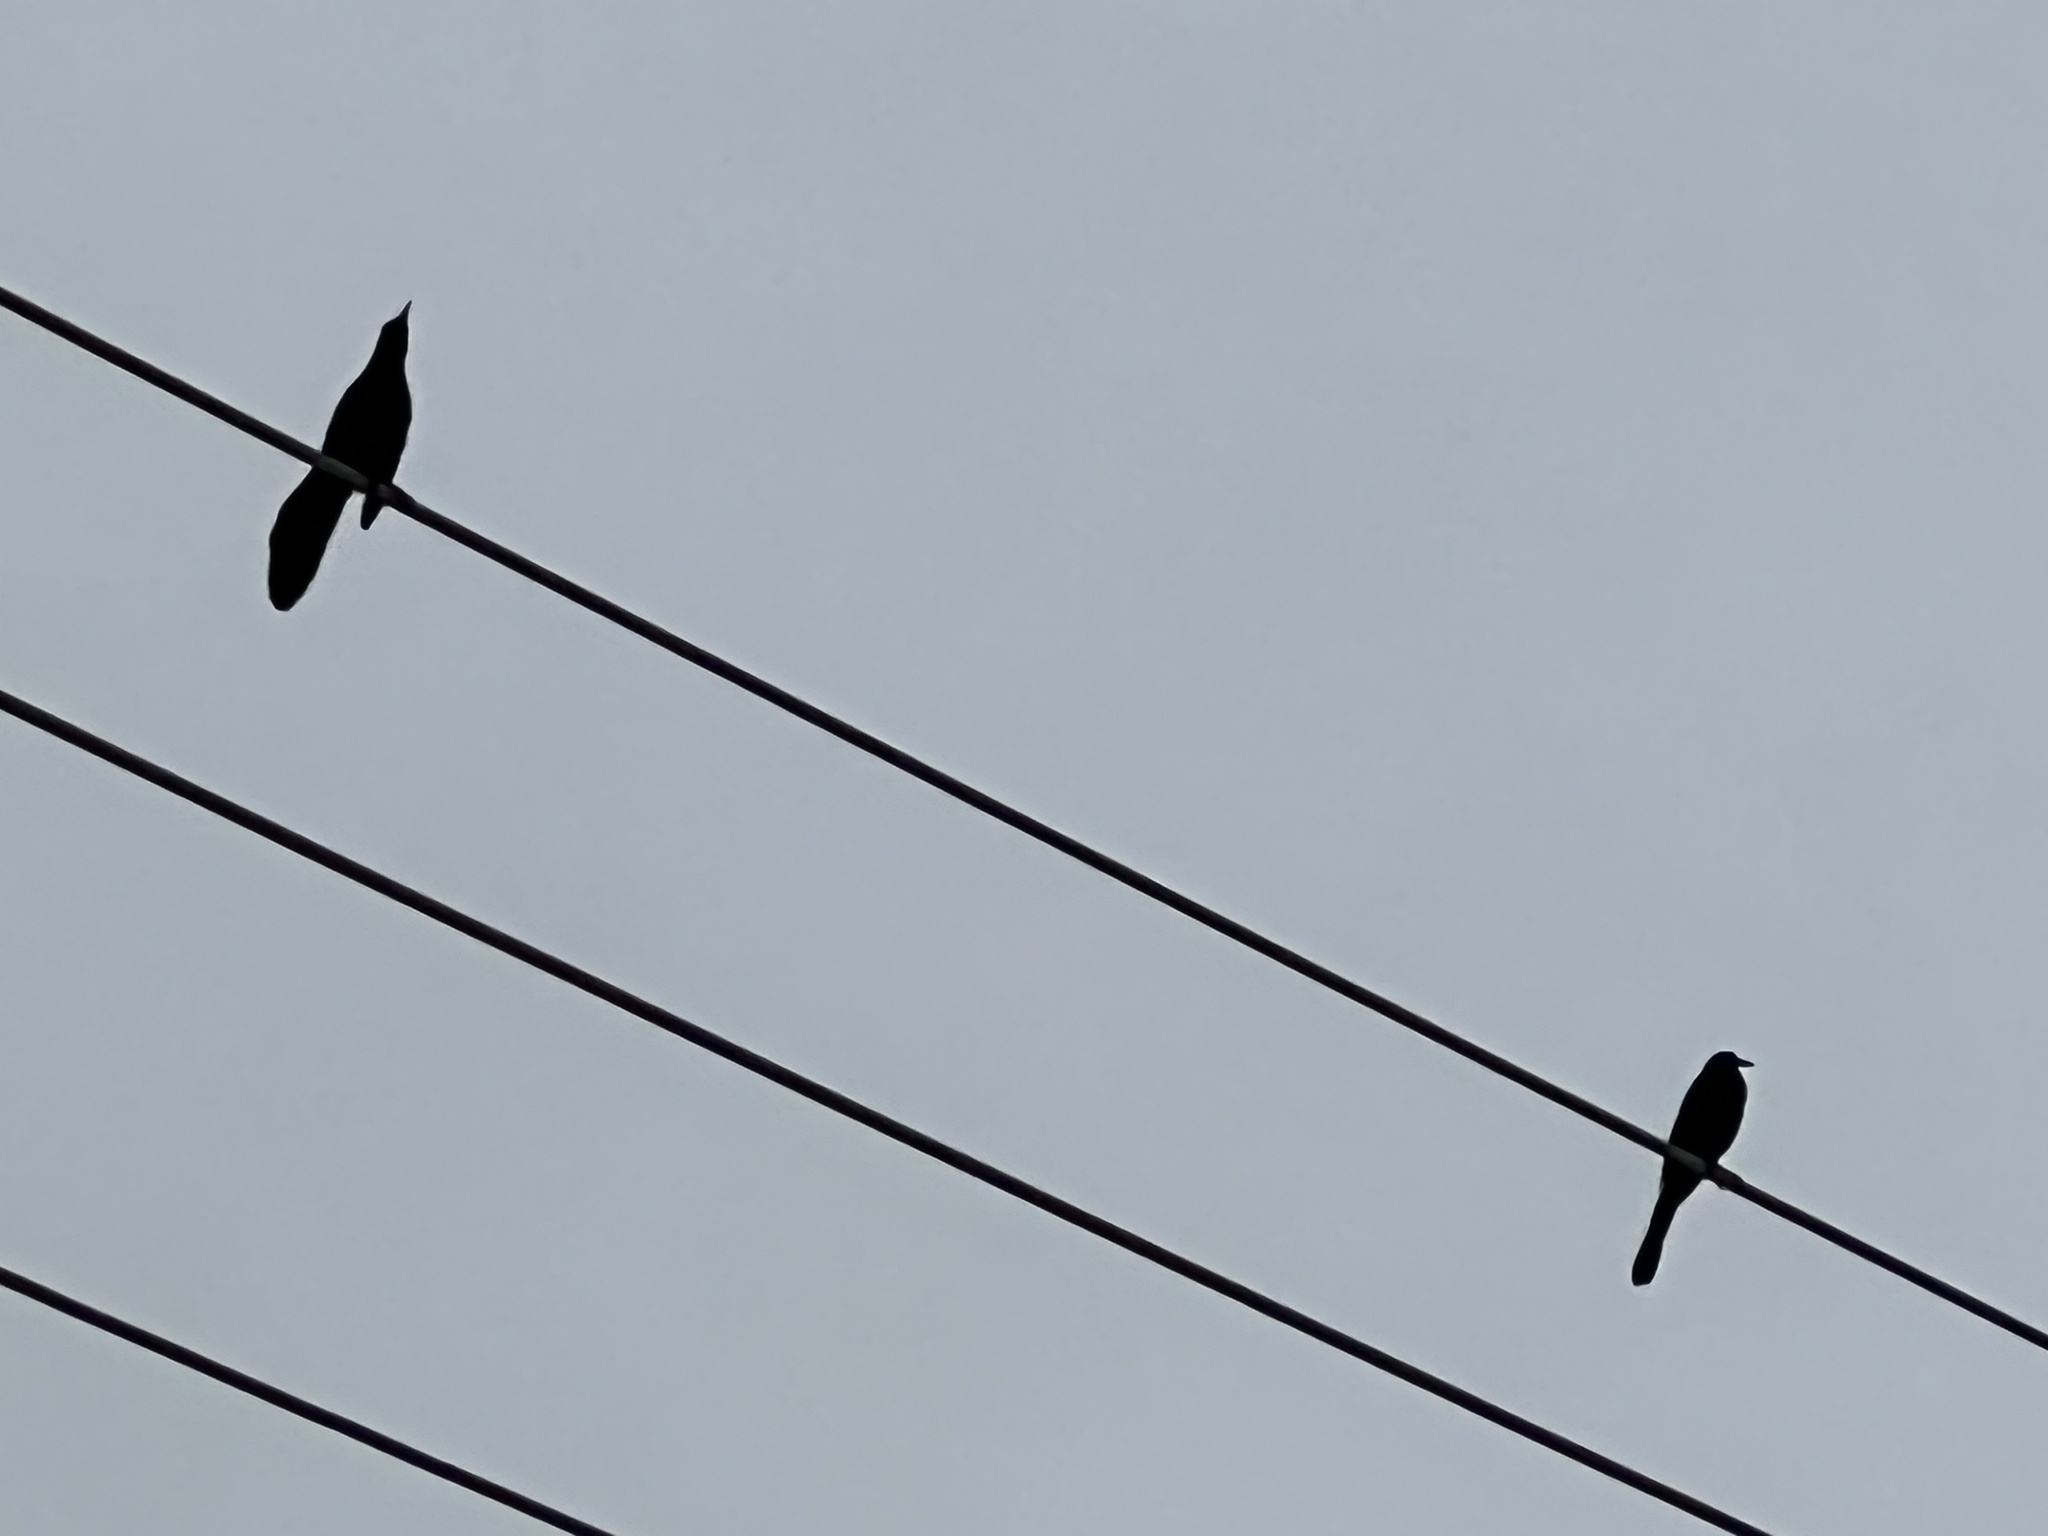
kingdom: Animalia
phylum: Chordata
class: Aves
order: Passeriformes
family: Icteridae
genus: Quiscalus
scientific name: Quiscalus mexicanus
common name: Great-tailed grackle
